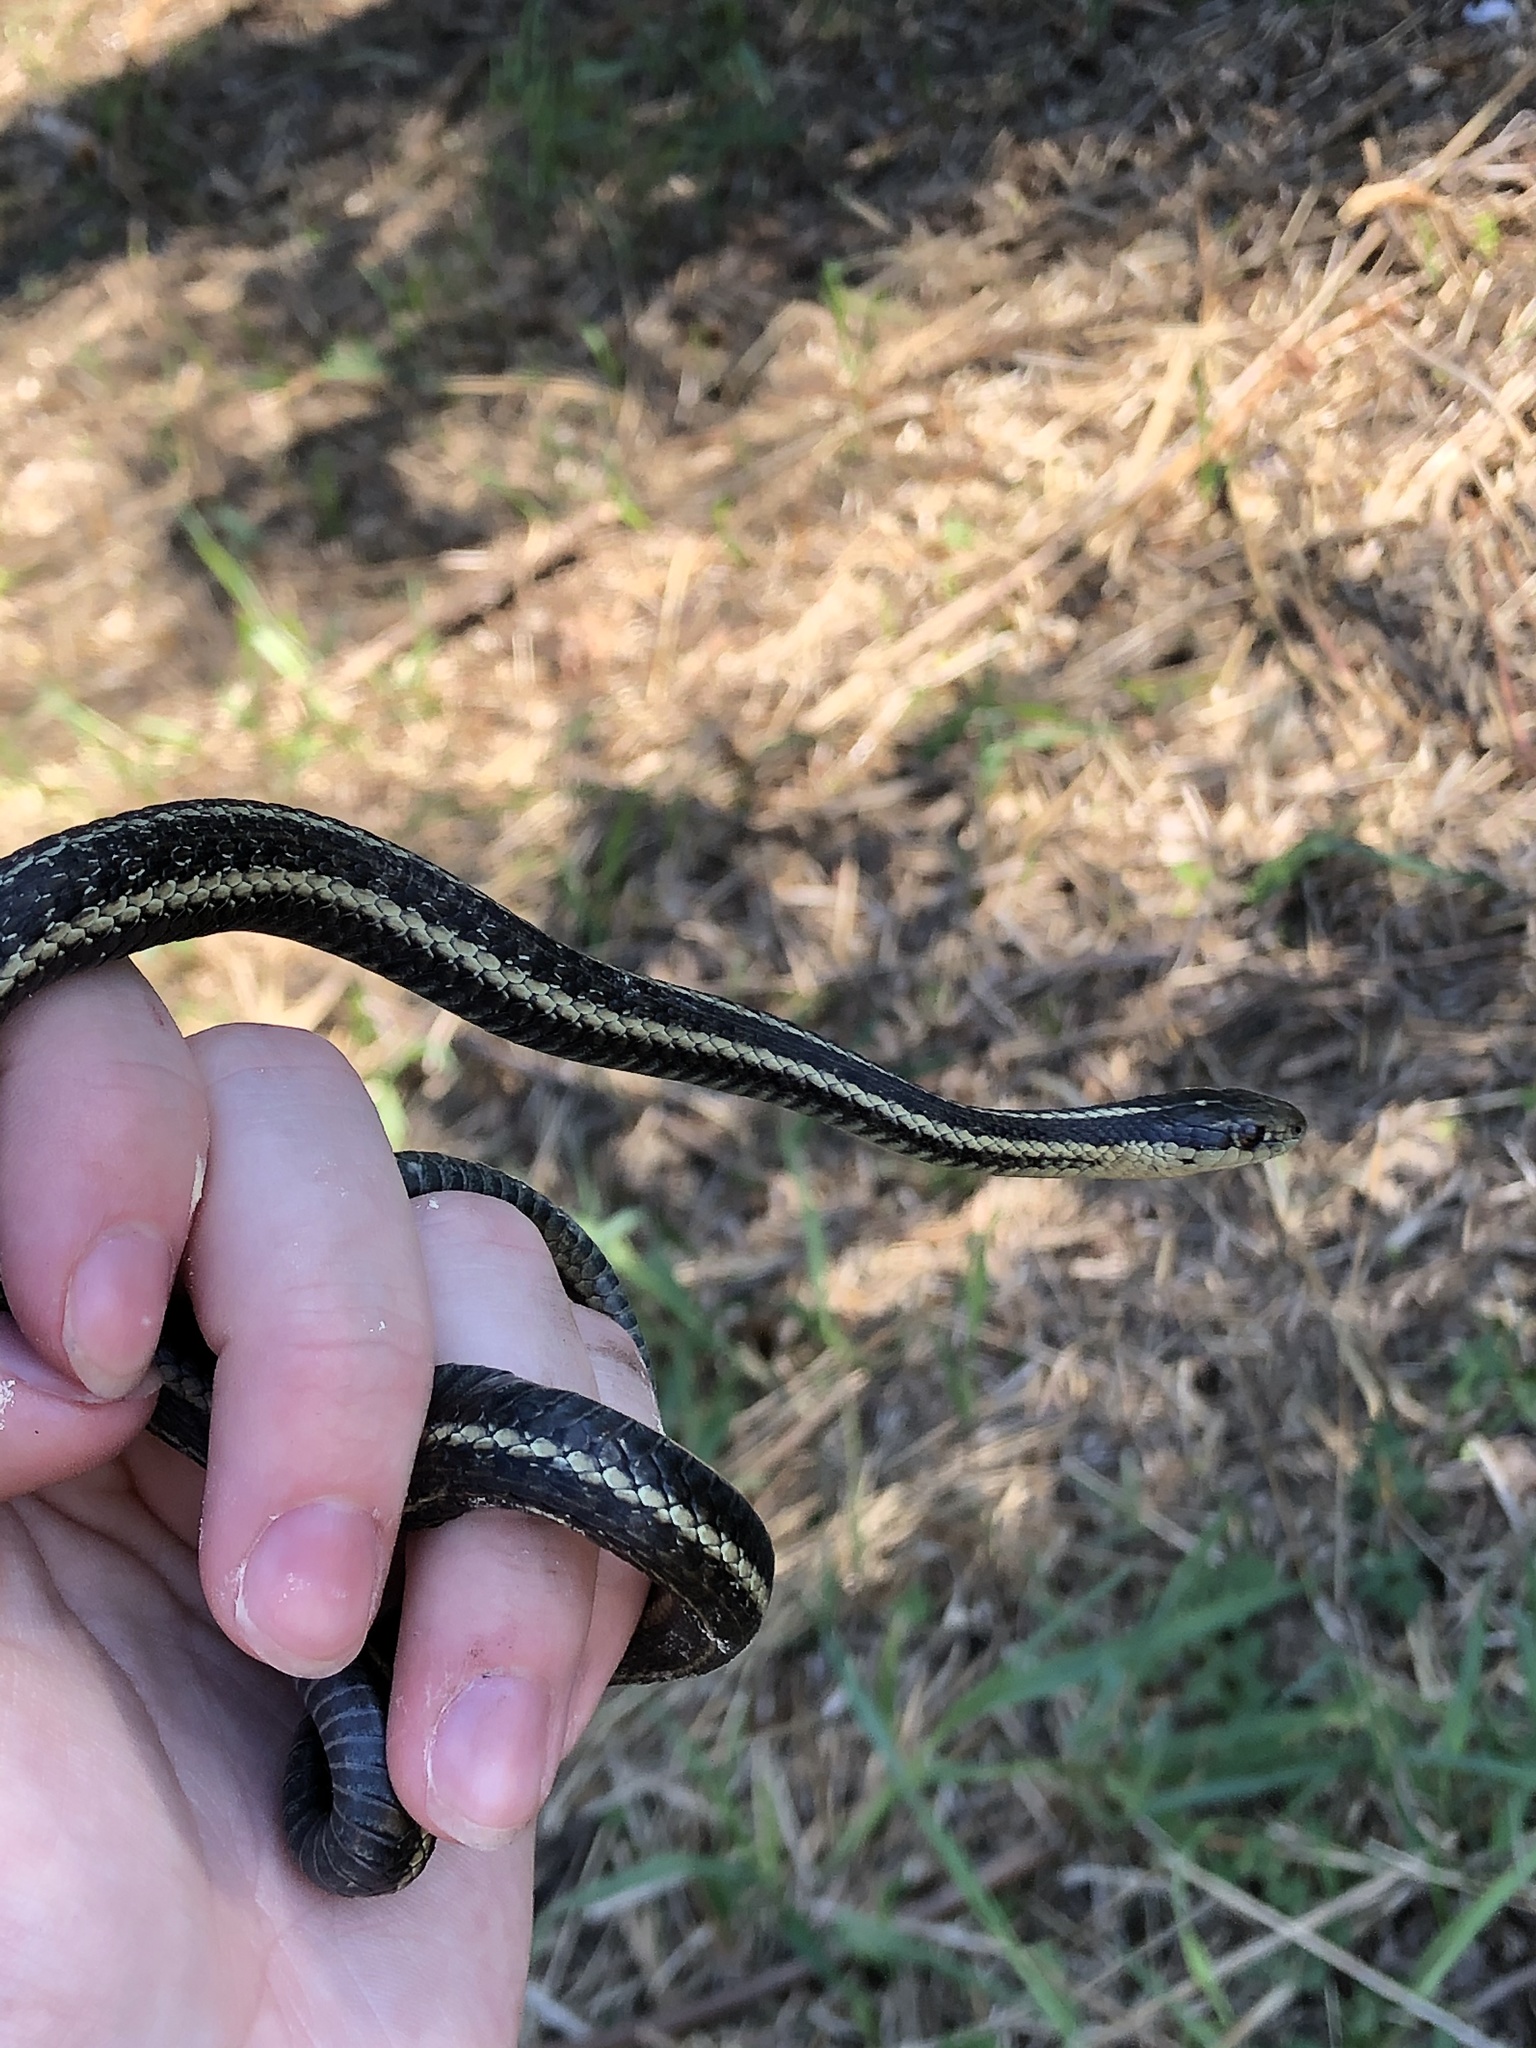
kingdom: Animalia
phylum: Chordata
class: Squamata
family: Colubridae
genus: Thamnophis
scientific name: Thamnophis ordinoides
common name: Northwestern garter snake
